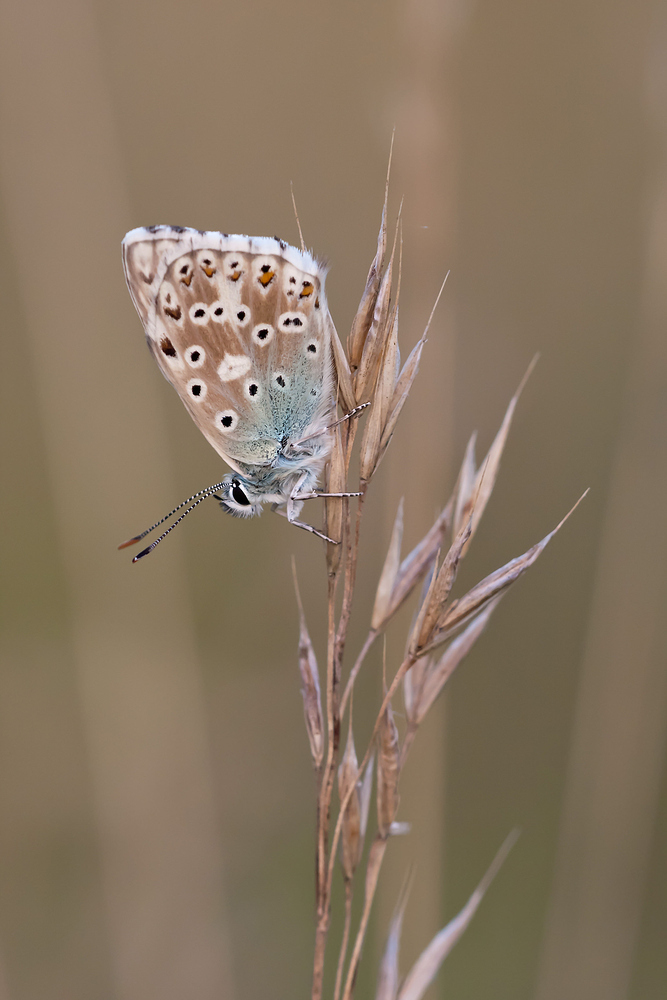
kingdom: Animalia
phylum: Arthropoda
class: Insecta
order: Lepidoptera
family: Lycaenidae
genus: Lysandra
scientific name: Lysandra coridon
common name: Chalkhill blue
